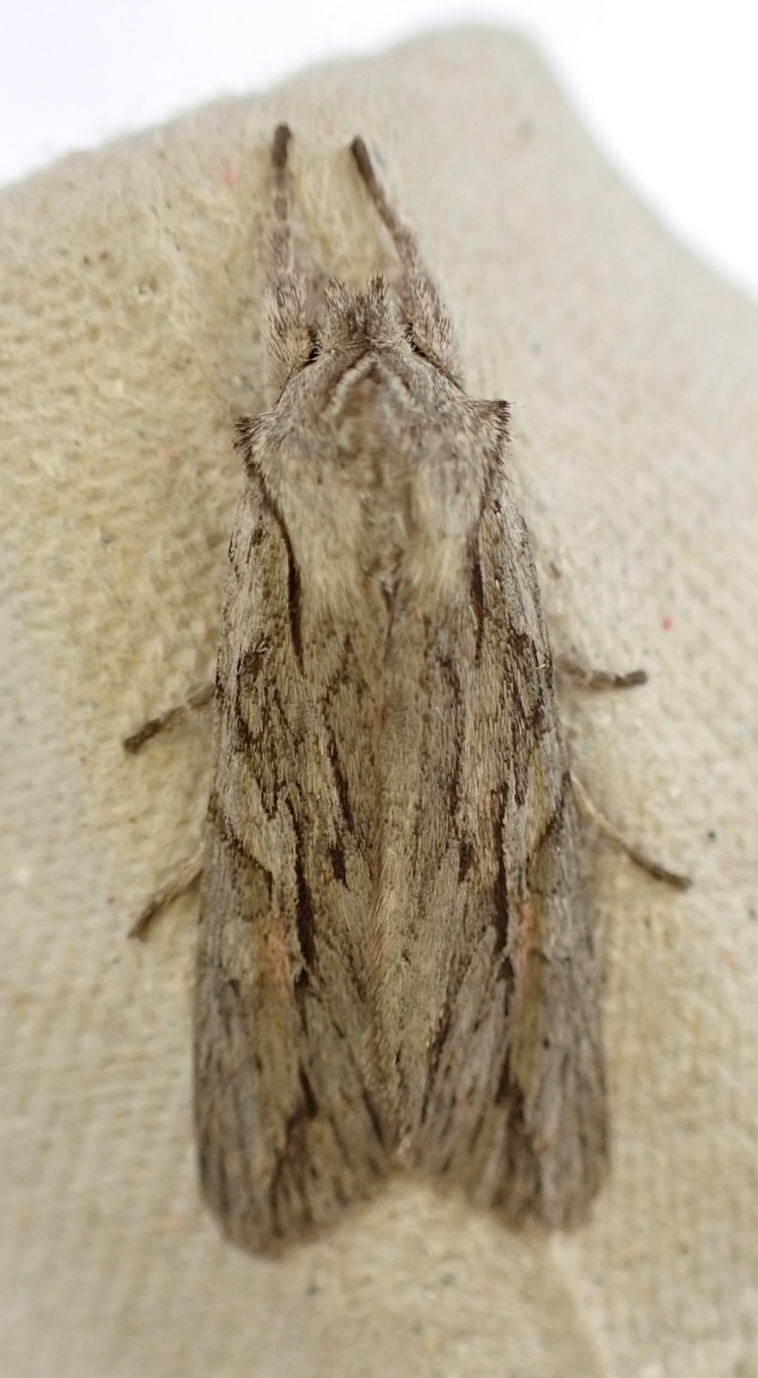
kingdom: Animalia
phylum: Arthropoda
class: Insecta
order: Lepidoptera
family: Noctuidae
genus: Lithophane
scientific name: Lithophane leautieri
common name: Blair's shoulder-knot
